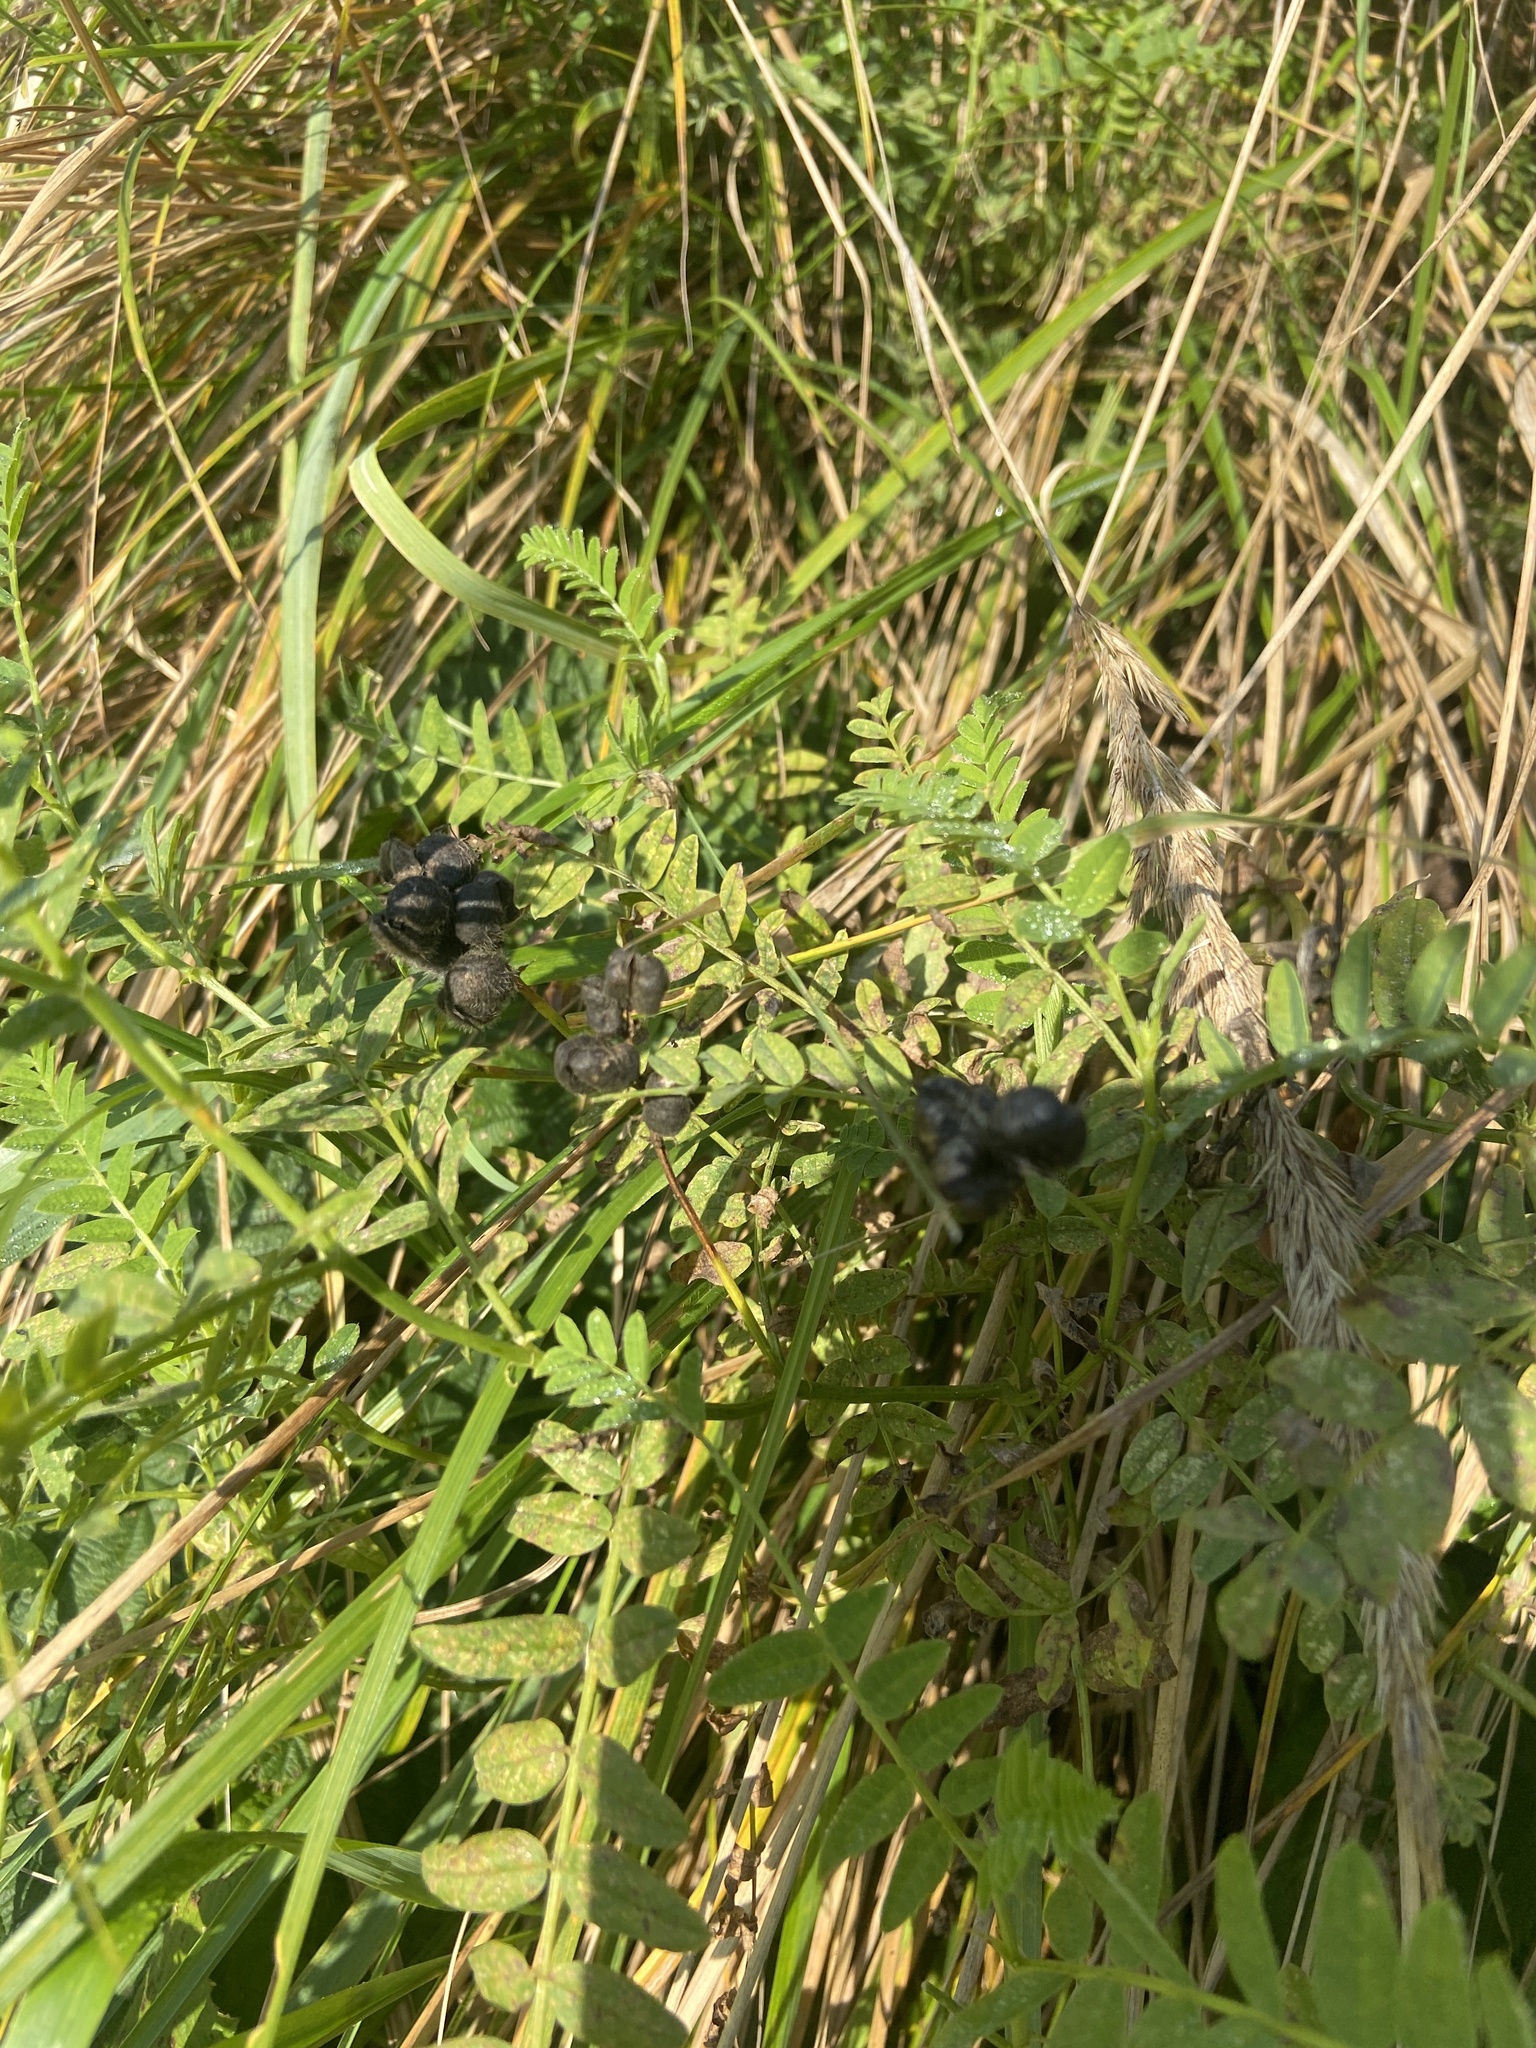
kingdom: Plantae
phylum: Tracheophyta
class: Magnoliopsida
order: Fabales
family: Fabaceae
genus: Astragalus
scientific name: Astragalus cicer
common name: Chick-pea milk-vetch
